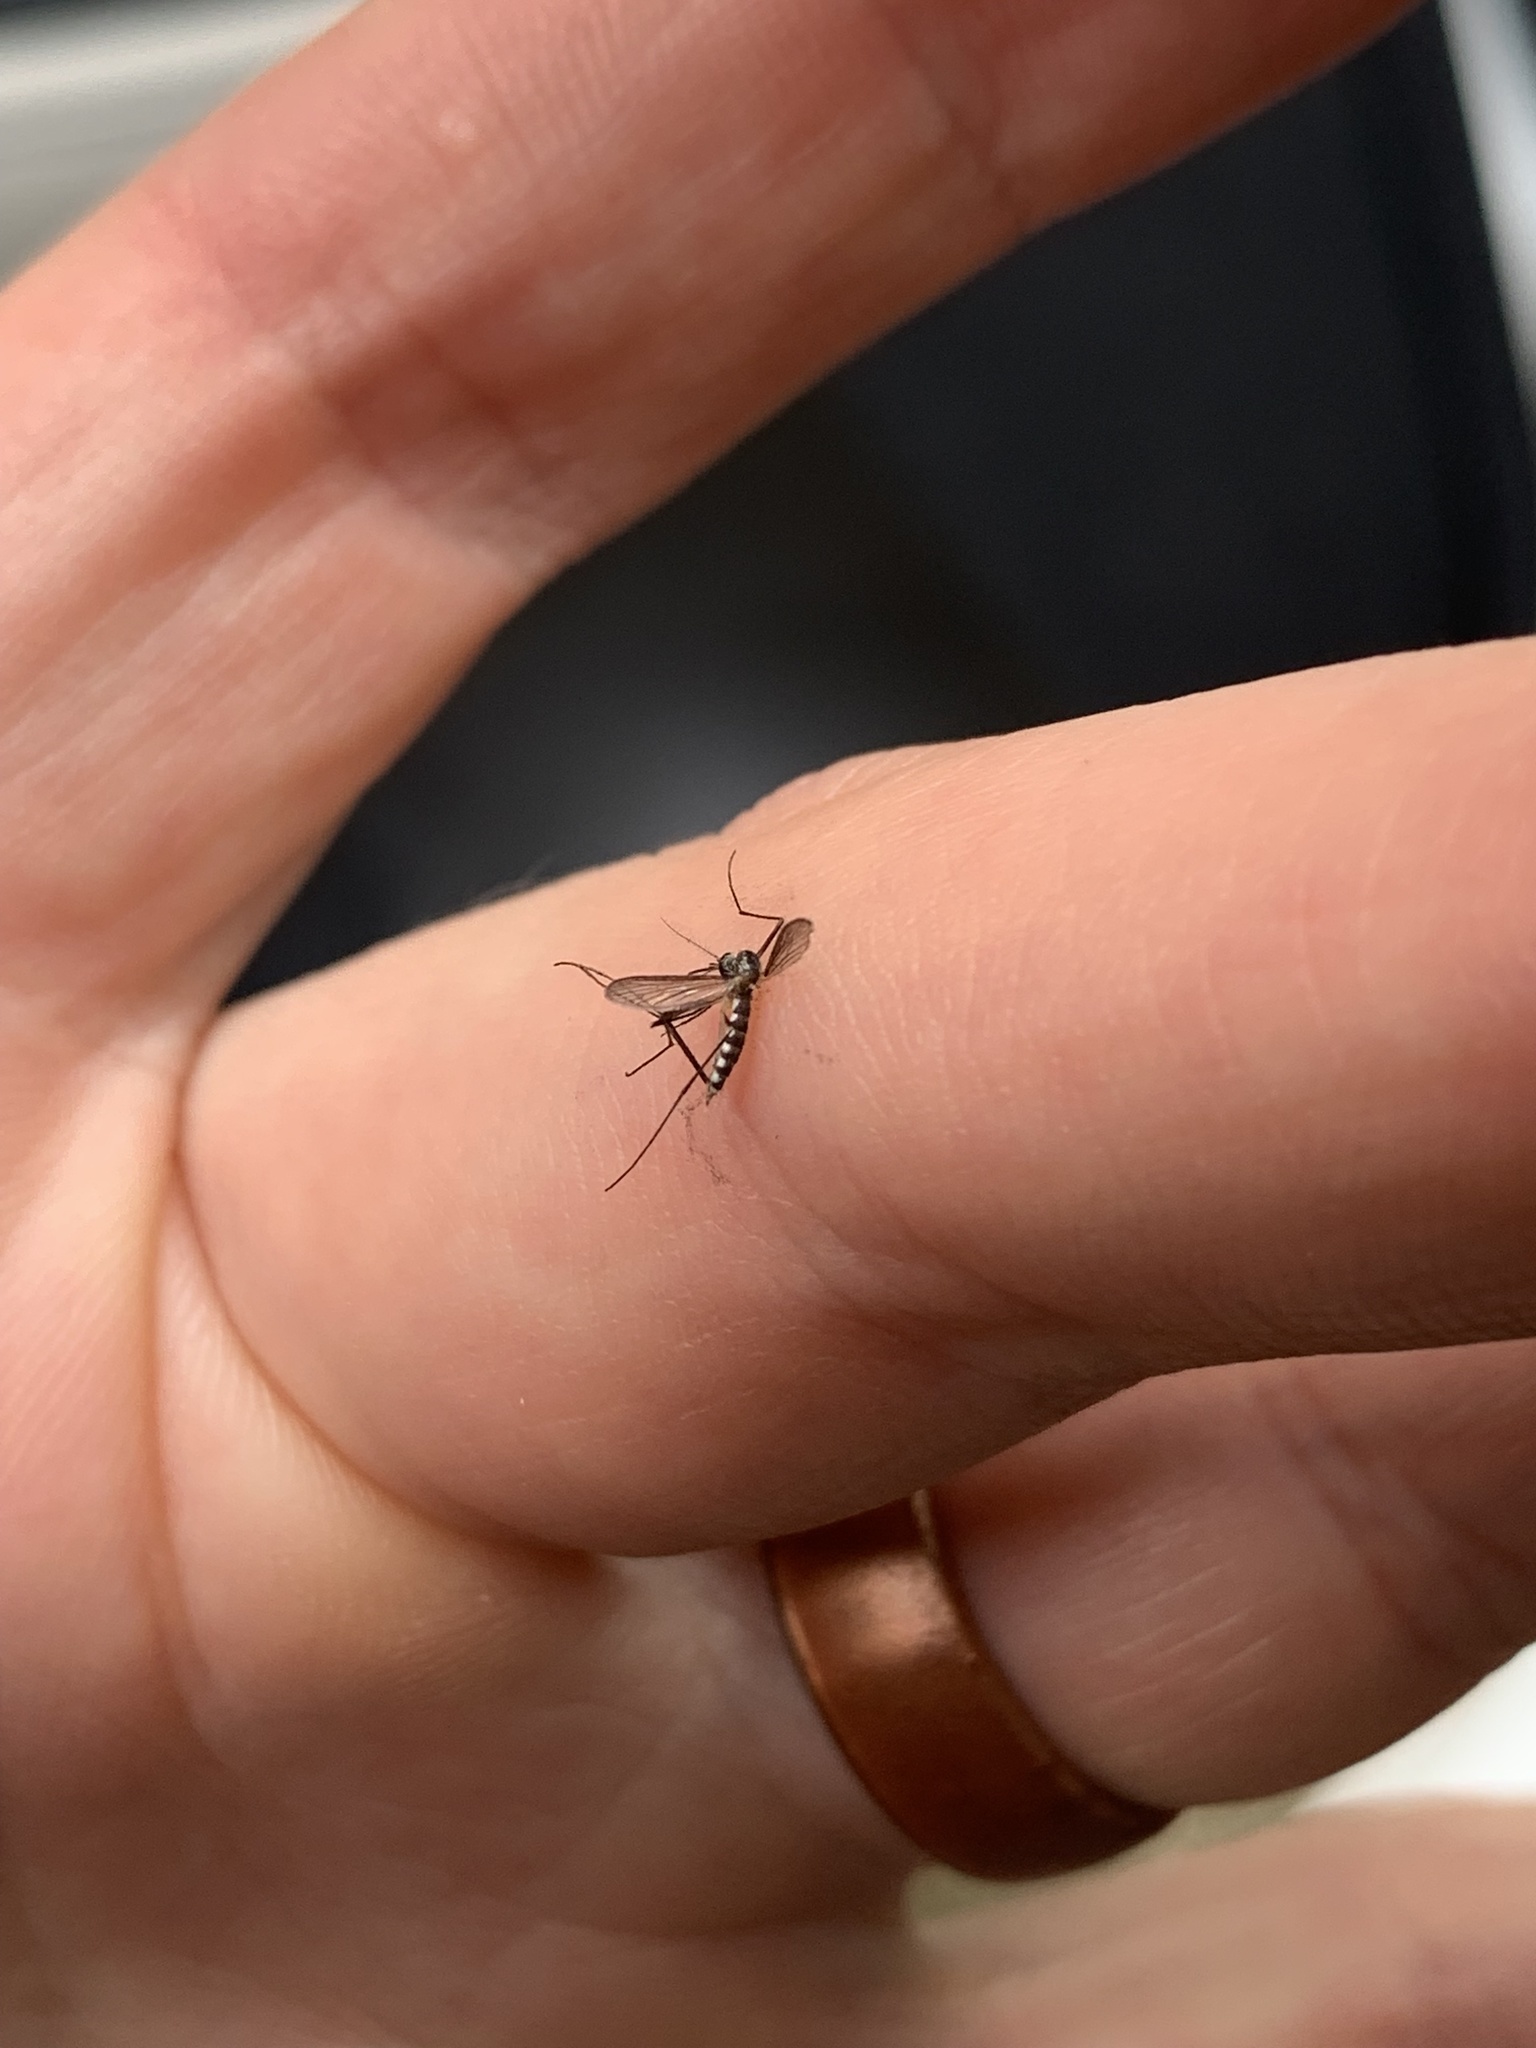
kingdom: Animalia
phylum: Arthropoda
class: Insecta
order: Diptera
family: Culicidae
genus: Aedes
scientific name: Aedes triseriatus
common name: Eastern treehole mosquito
